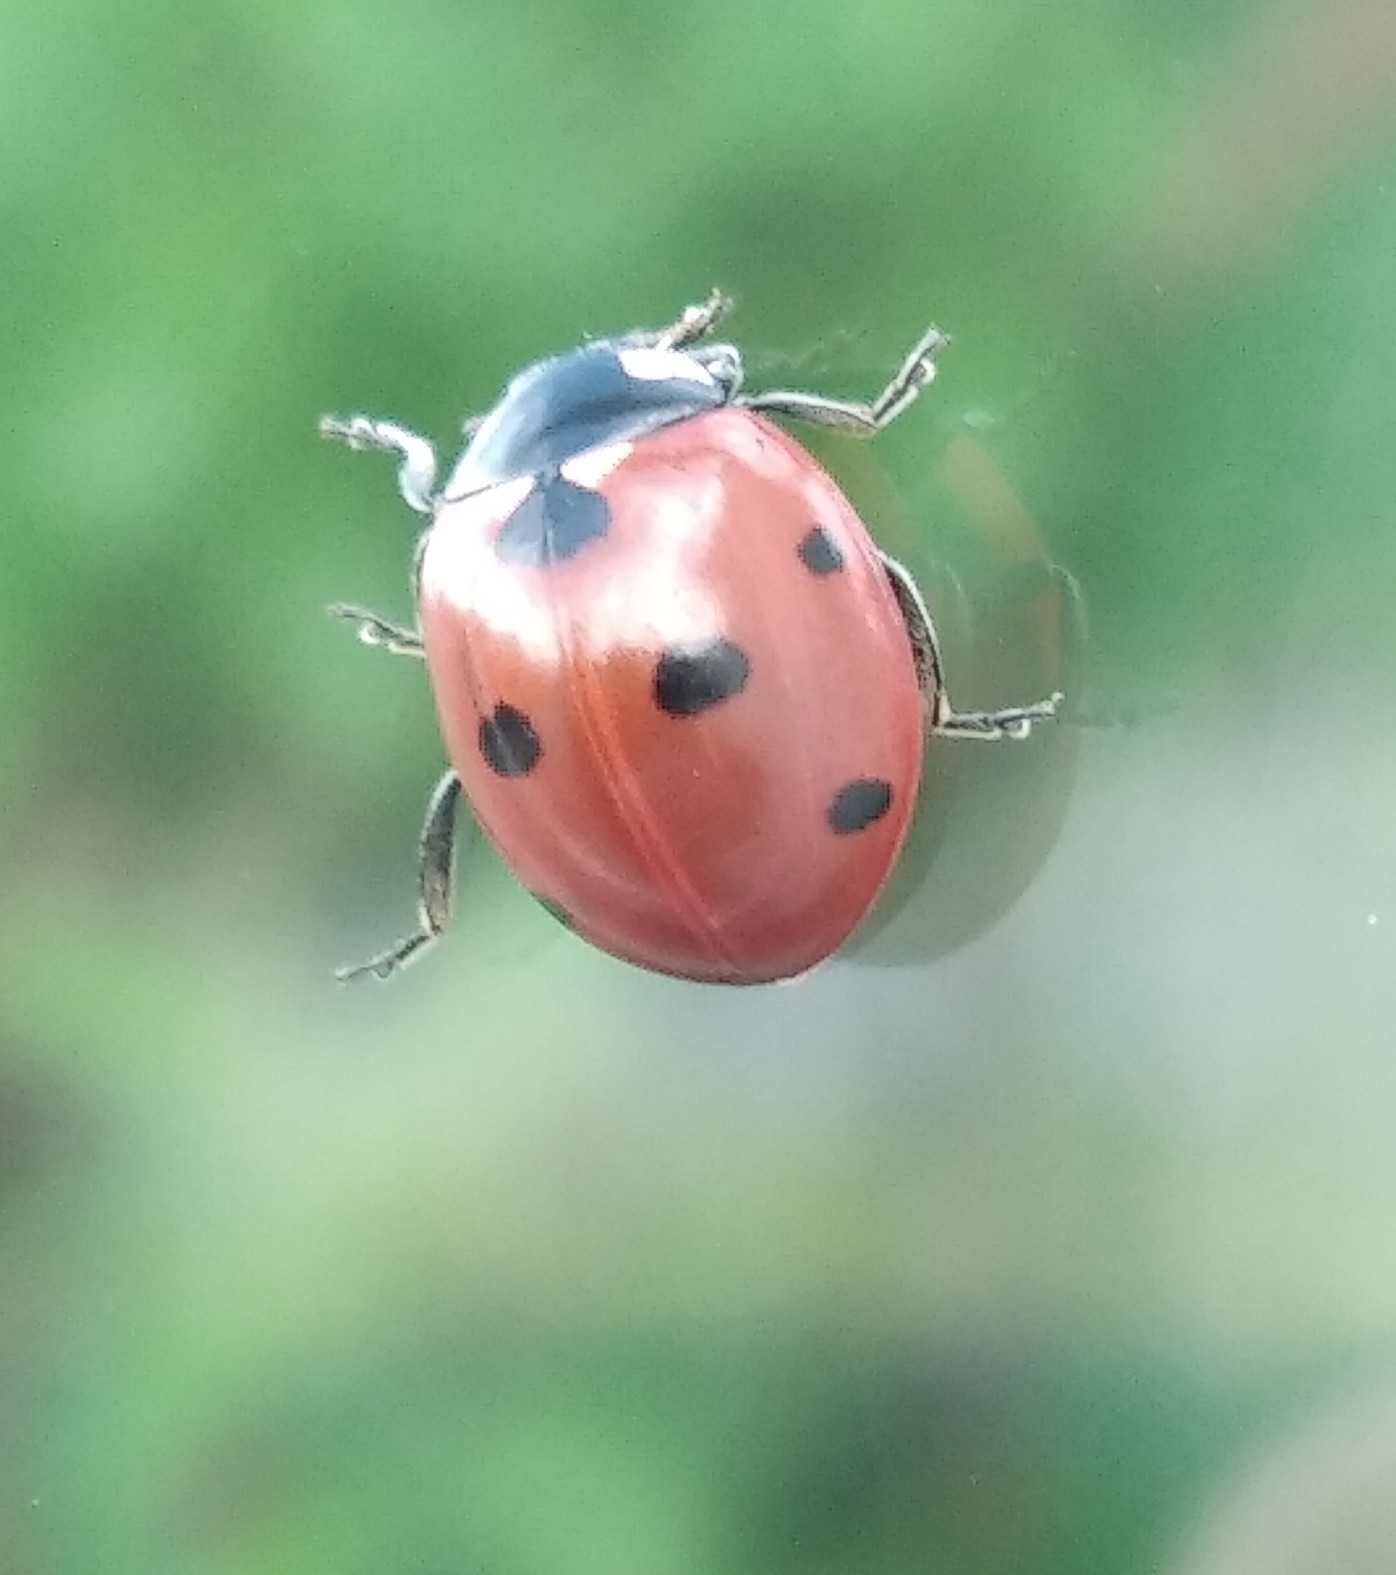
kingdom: Animalia
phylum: Arthropoda
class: Insecta
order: Coleoptera
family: Coccinellidae
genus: Coccinella
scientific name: Coccinella septempunctata
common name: Sevenspotted lady beetle
